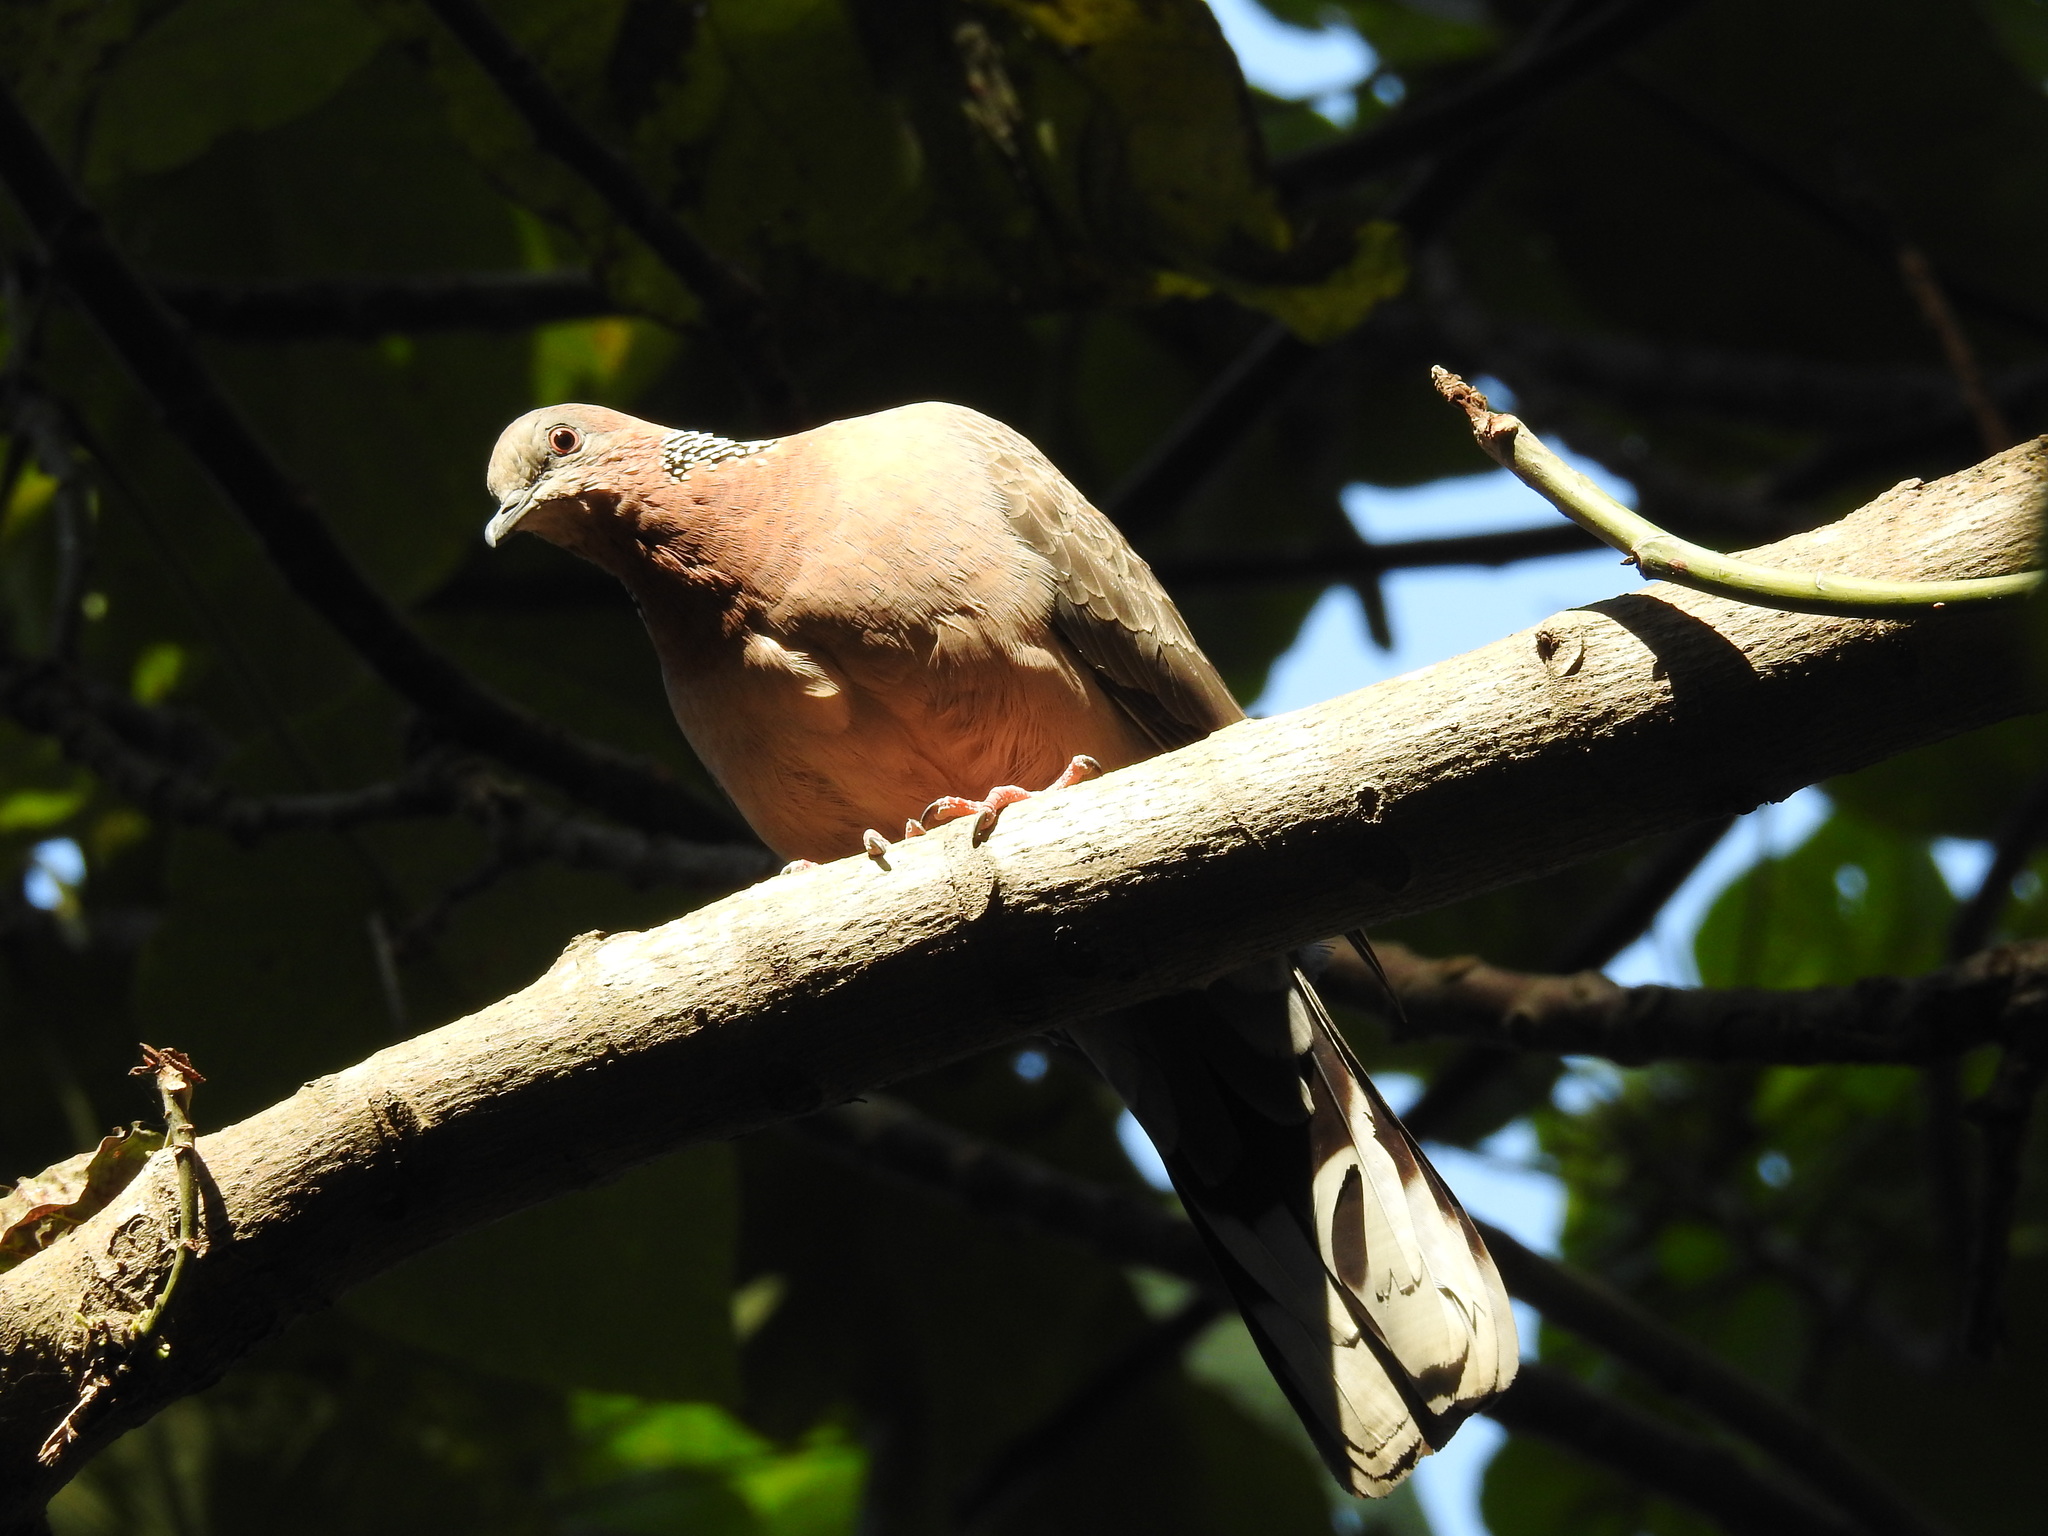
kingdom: Animalia
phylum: Chordata
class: Aves
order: Columbiformes
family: Columbidae
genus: Spilopelia
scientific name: Spilopelia chinensis
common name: Spotted dove
